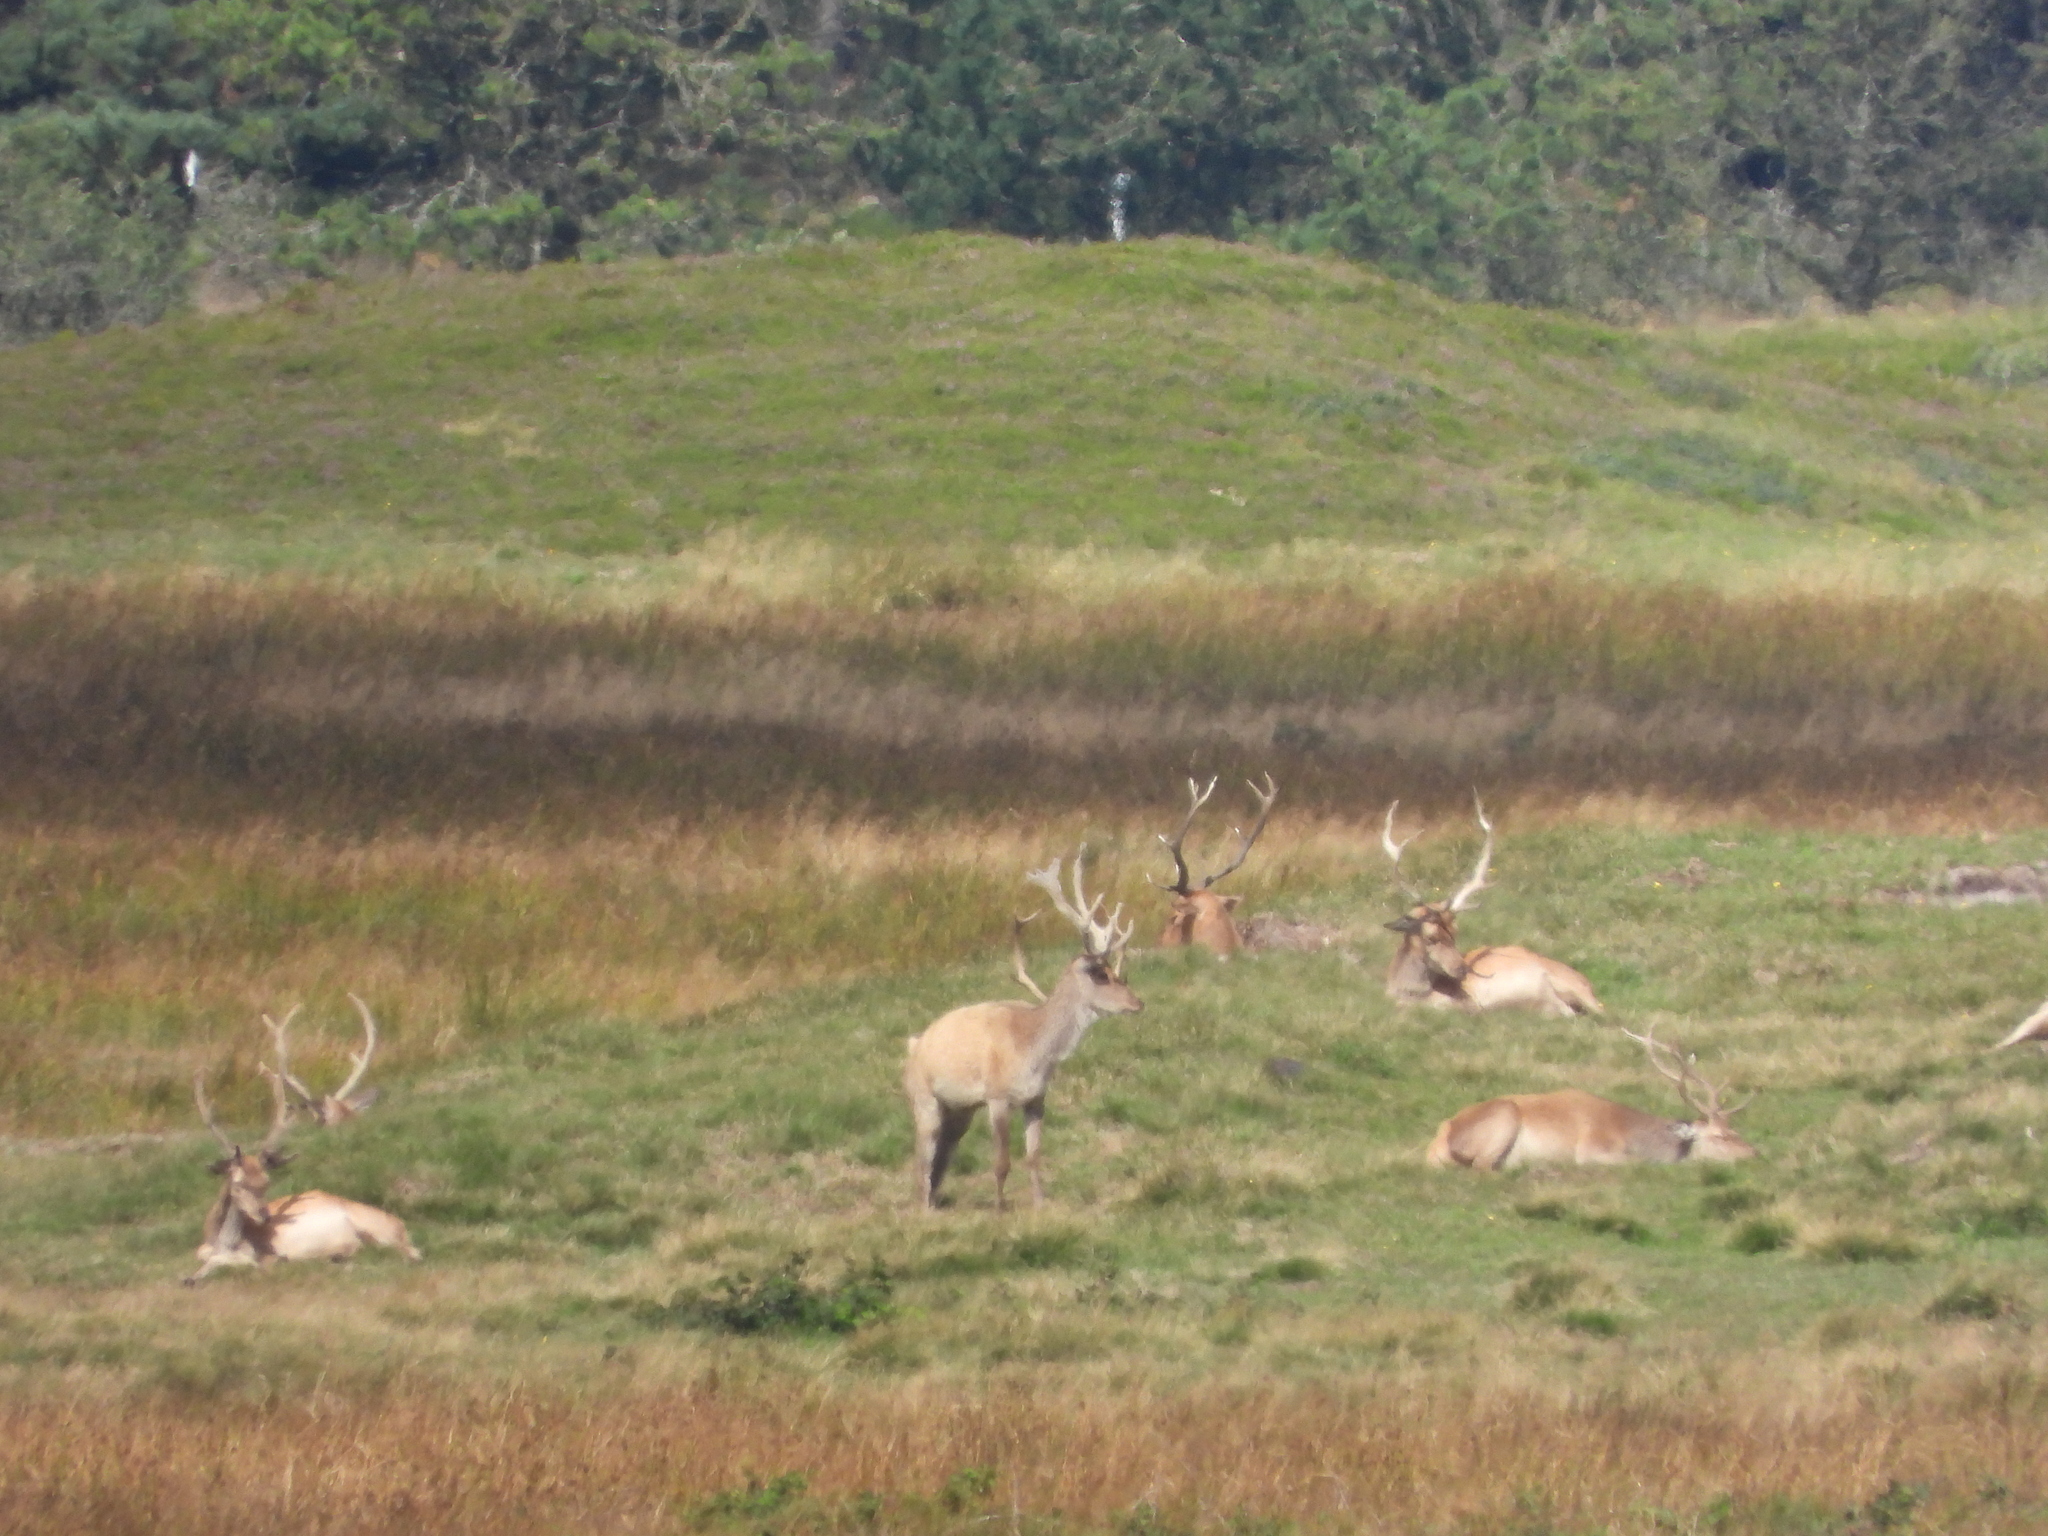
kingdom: Animalia
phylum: Chordata
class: Mammalia
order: Artiodactyla
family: Cervidae
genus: Cervus
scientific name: Cervus elaphus
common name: Red deer
